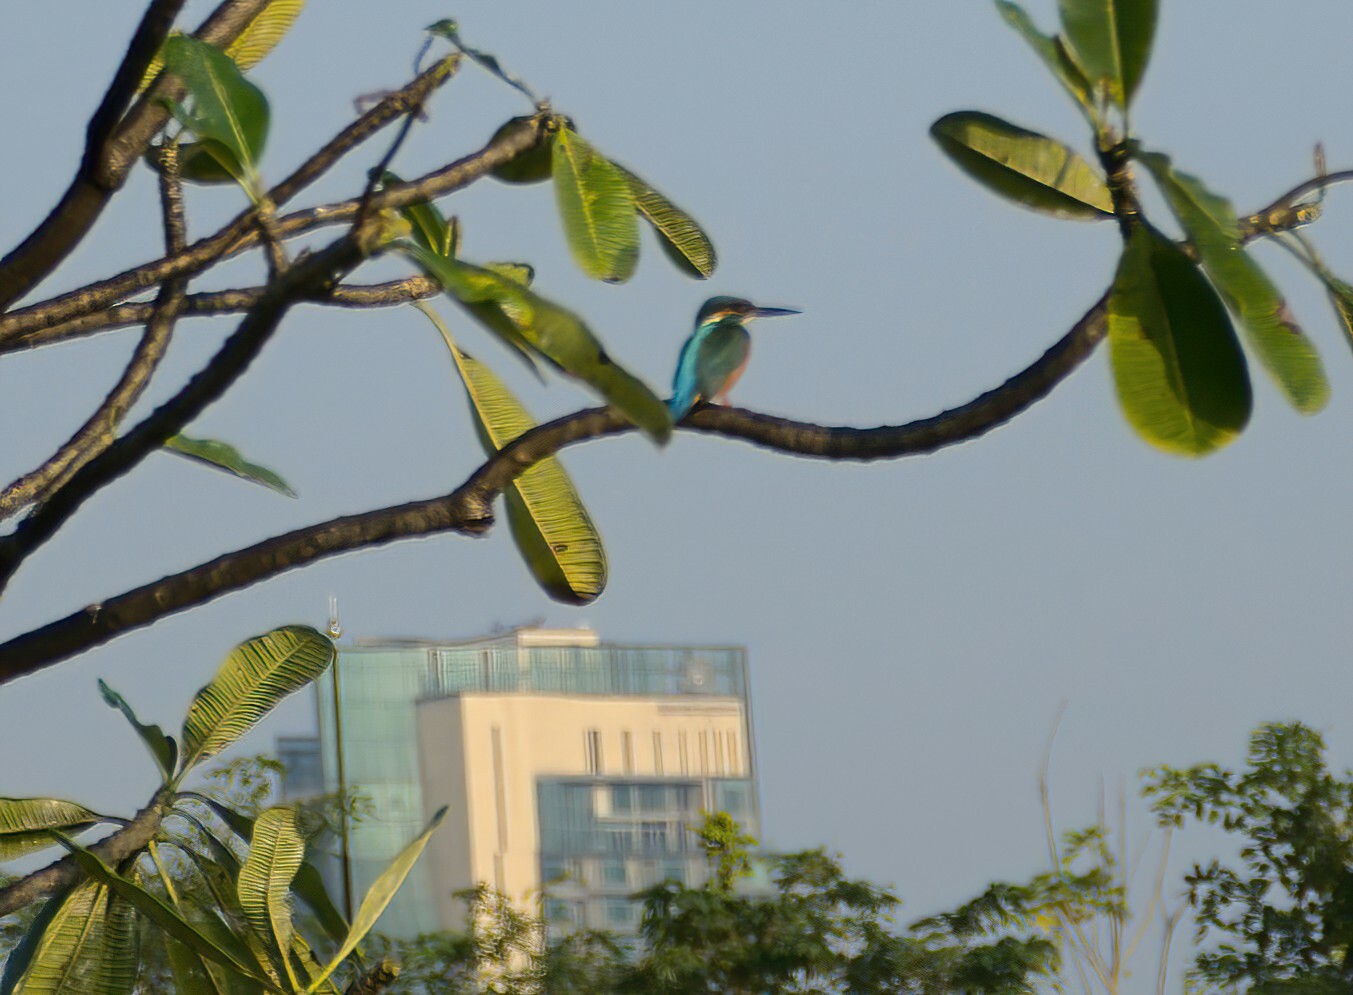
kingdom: Animalia
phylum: Chordata
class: Aves
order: Coraciiformes
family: Alcedinidae
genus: Alcedo
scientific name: Alcedo atthis
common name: Common kingfisher
